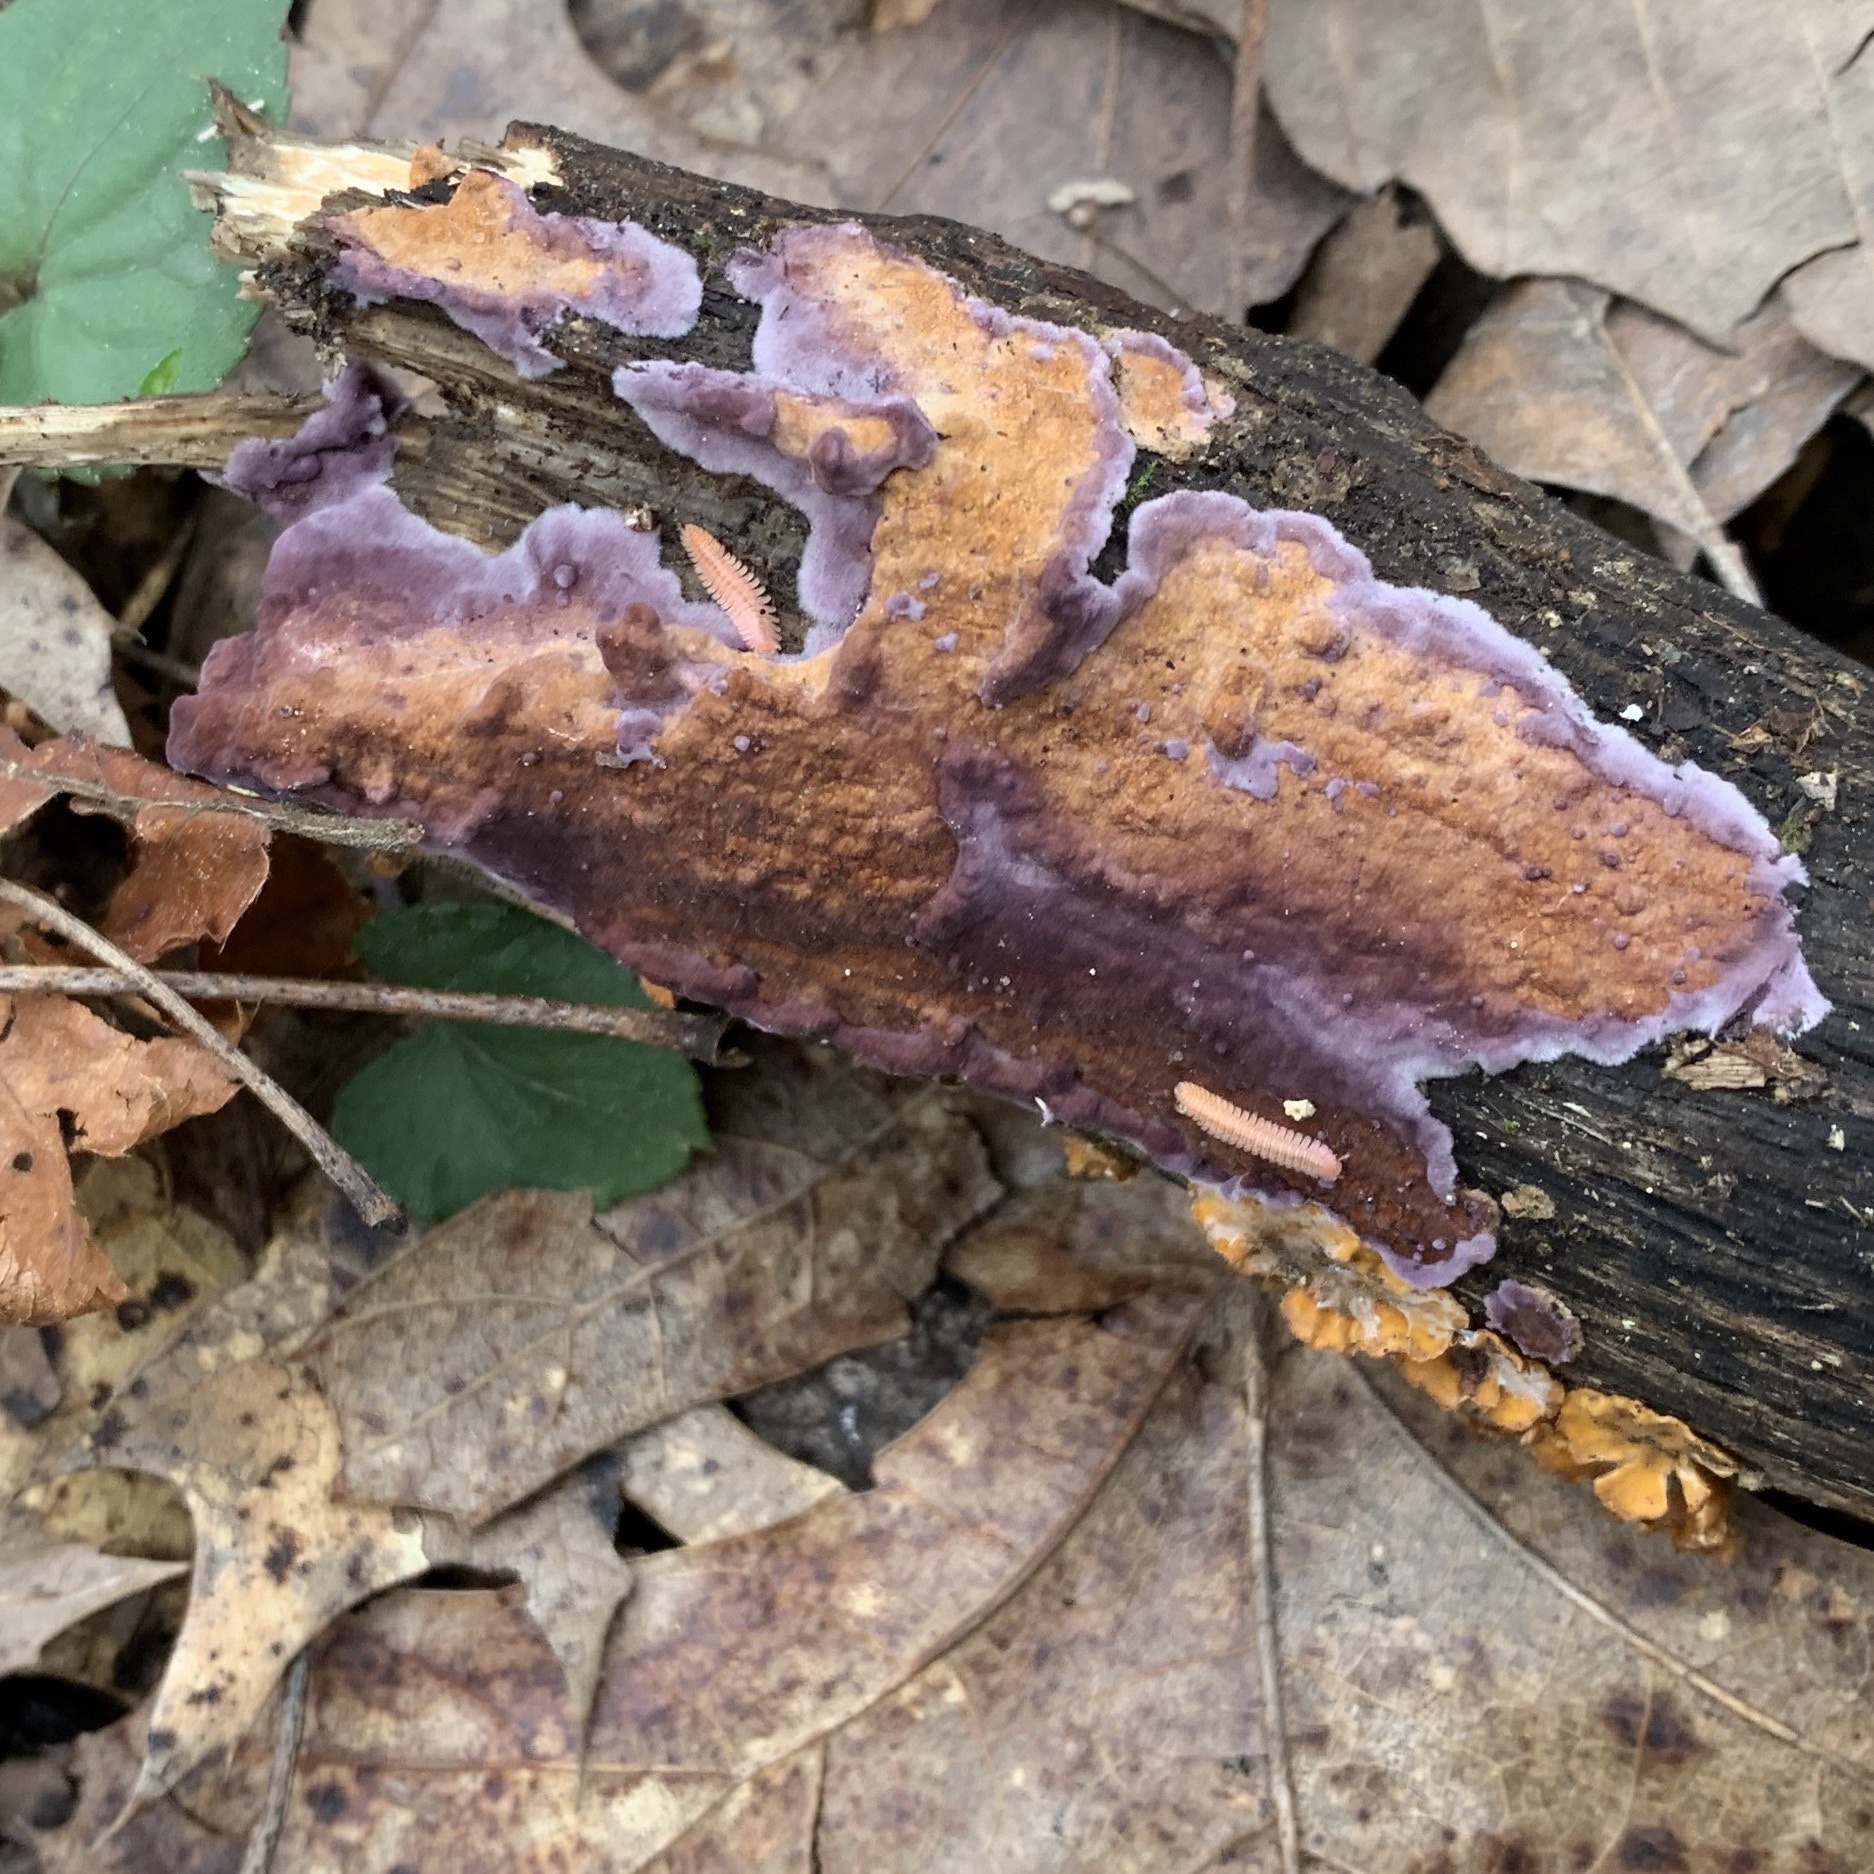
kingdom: Animalia
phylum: Arthropoda
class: Diplopoda
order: Platydesmida
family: Andrognathidae
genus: Brachycybe
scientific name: Brachycybe lecontii
